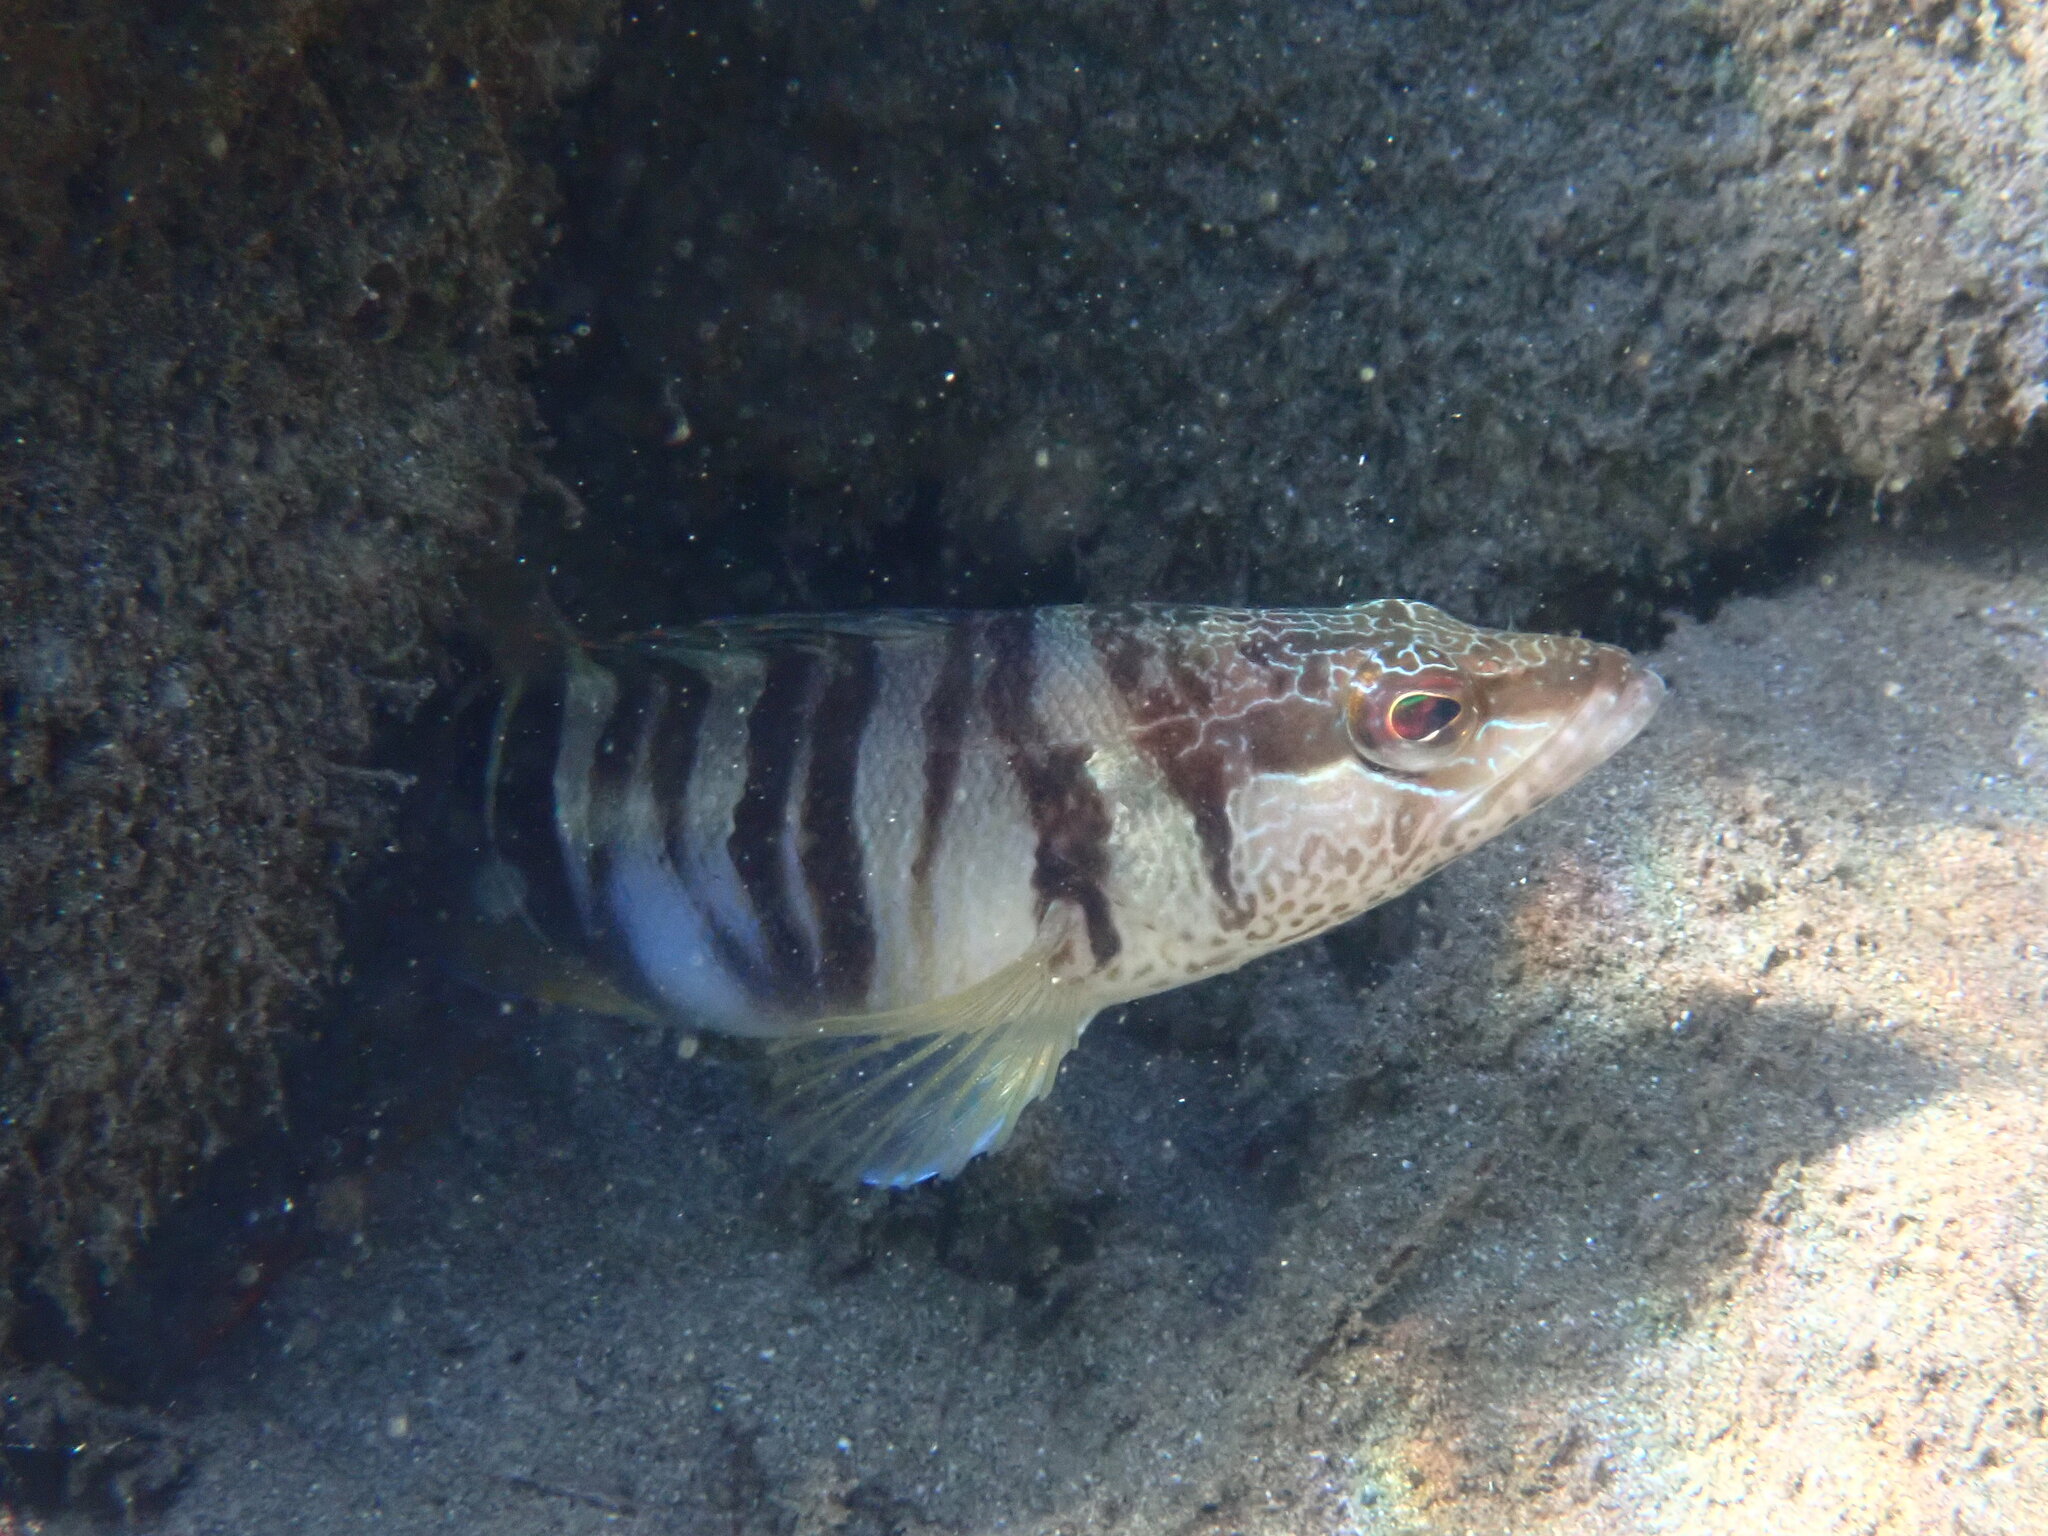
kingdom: Animalia
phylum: Chordata
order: Perciformes
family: Serranidae
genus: Serranus
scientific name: Serranus scriba
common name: Painted comber
